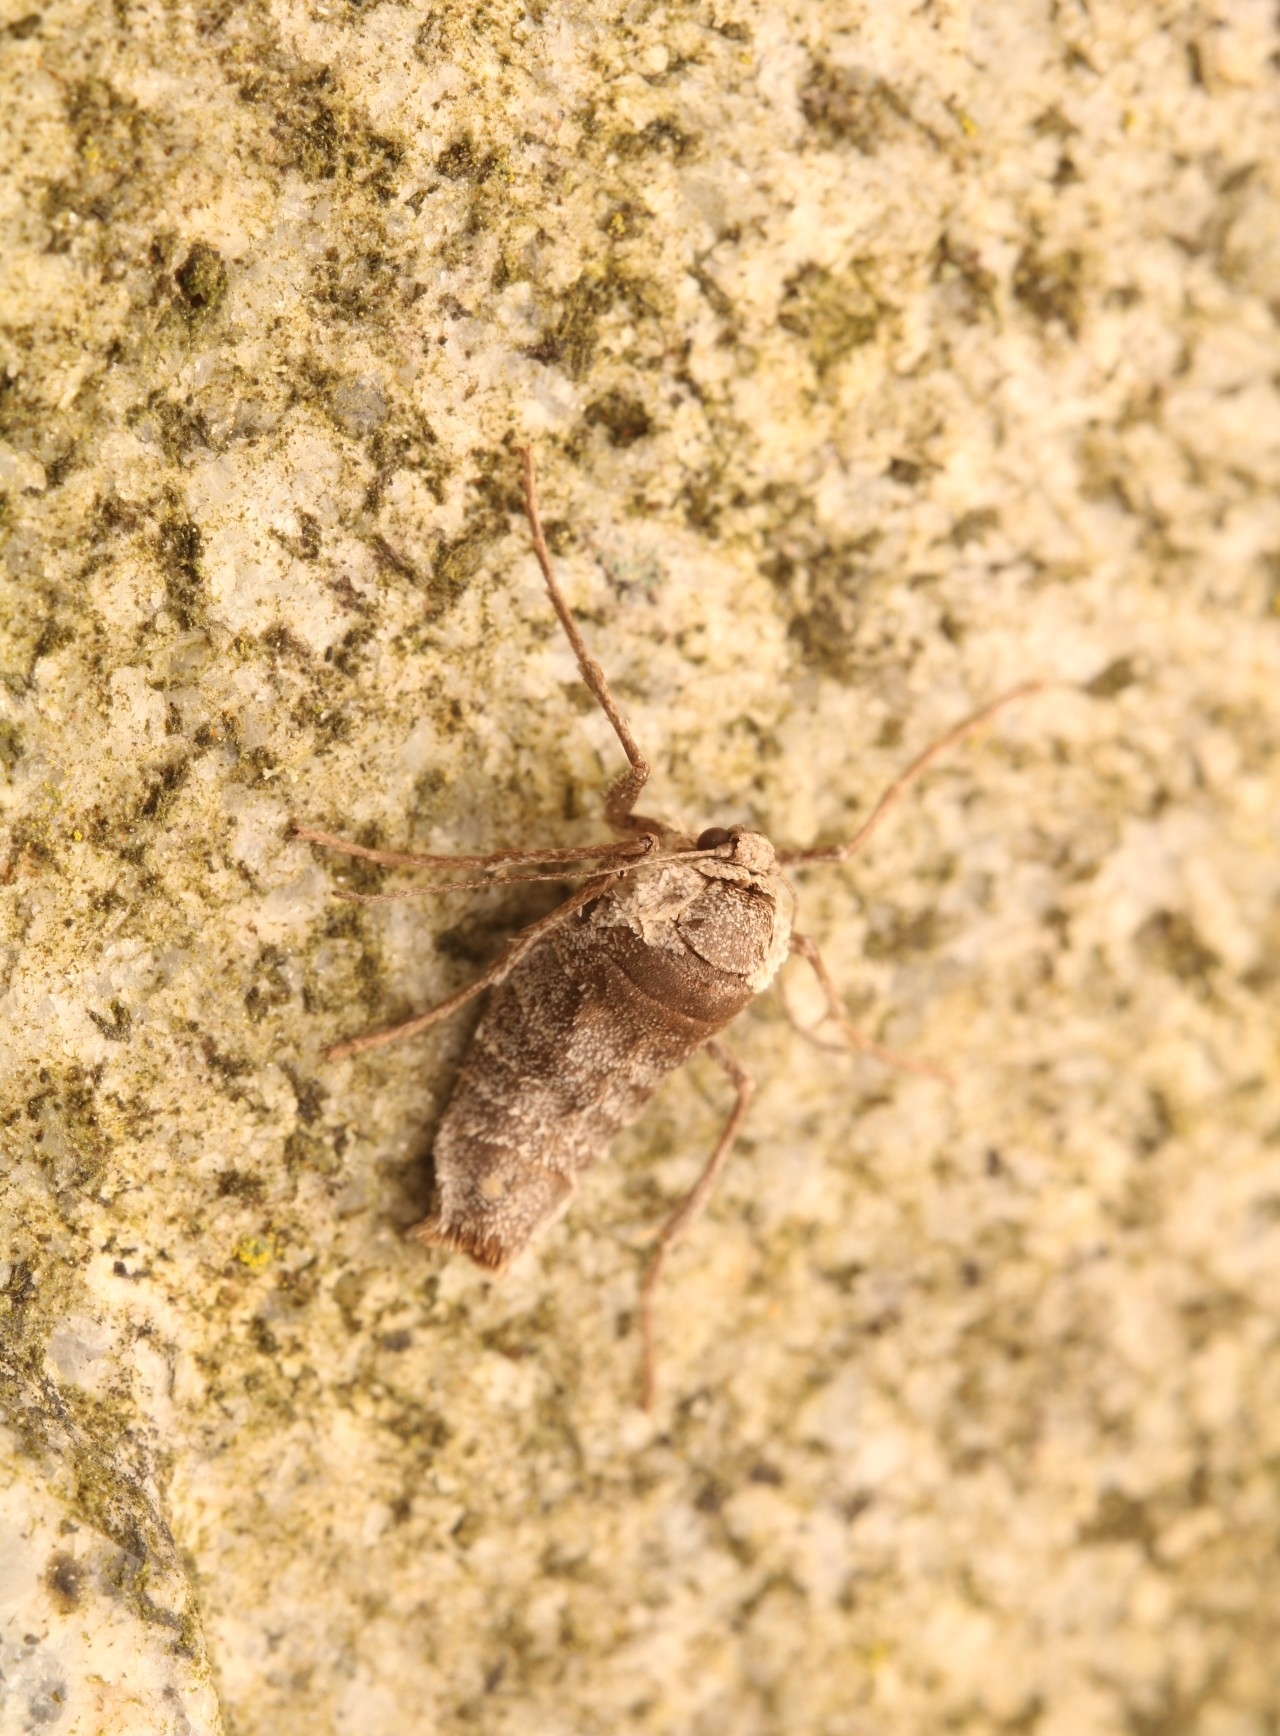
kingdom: Animalia
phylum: Arthropoda
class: Insecta
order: Lepidoptera
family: Geometridae
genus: Alsophila
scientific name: Alsophila pometaria
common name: Fall cankerworm
